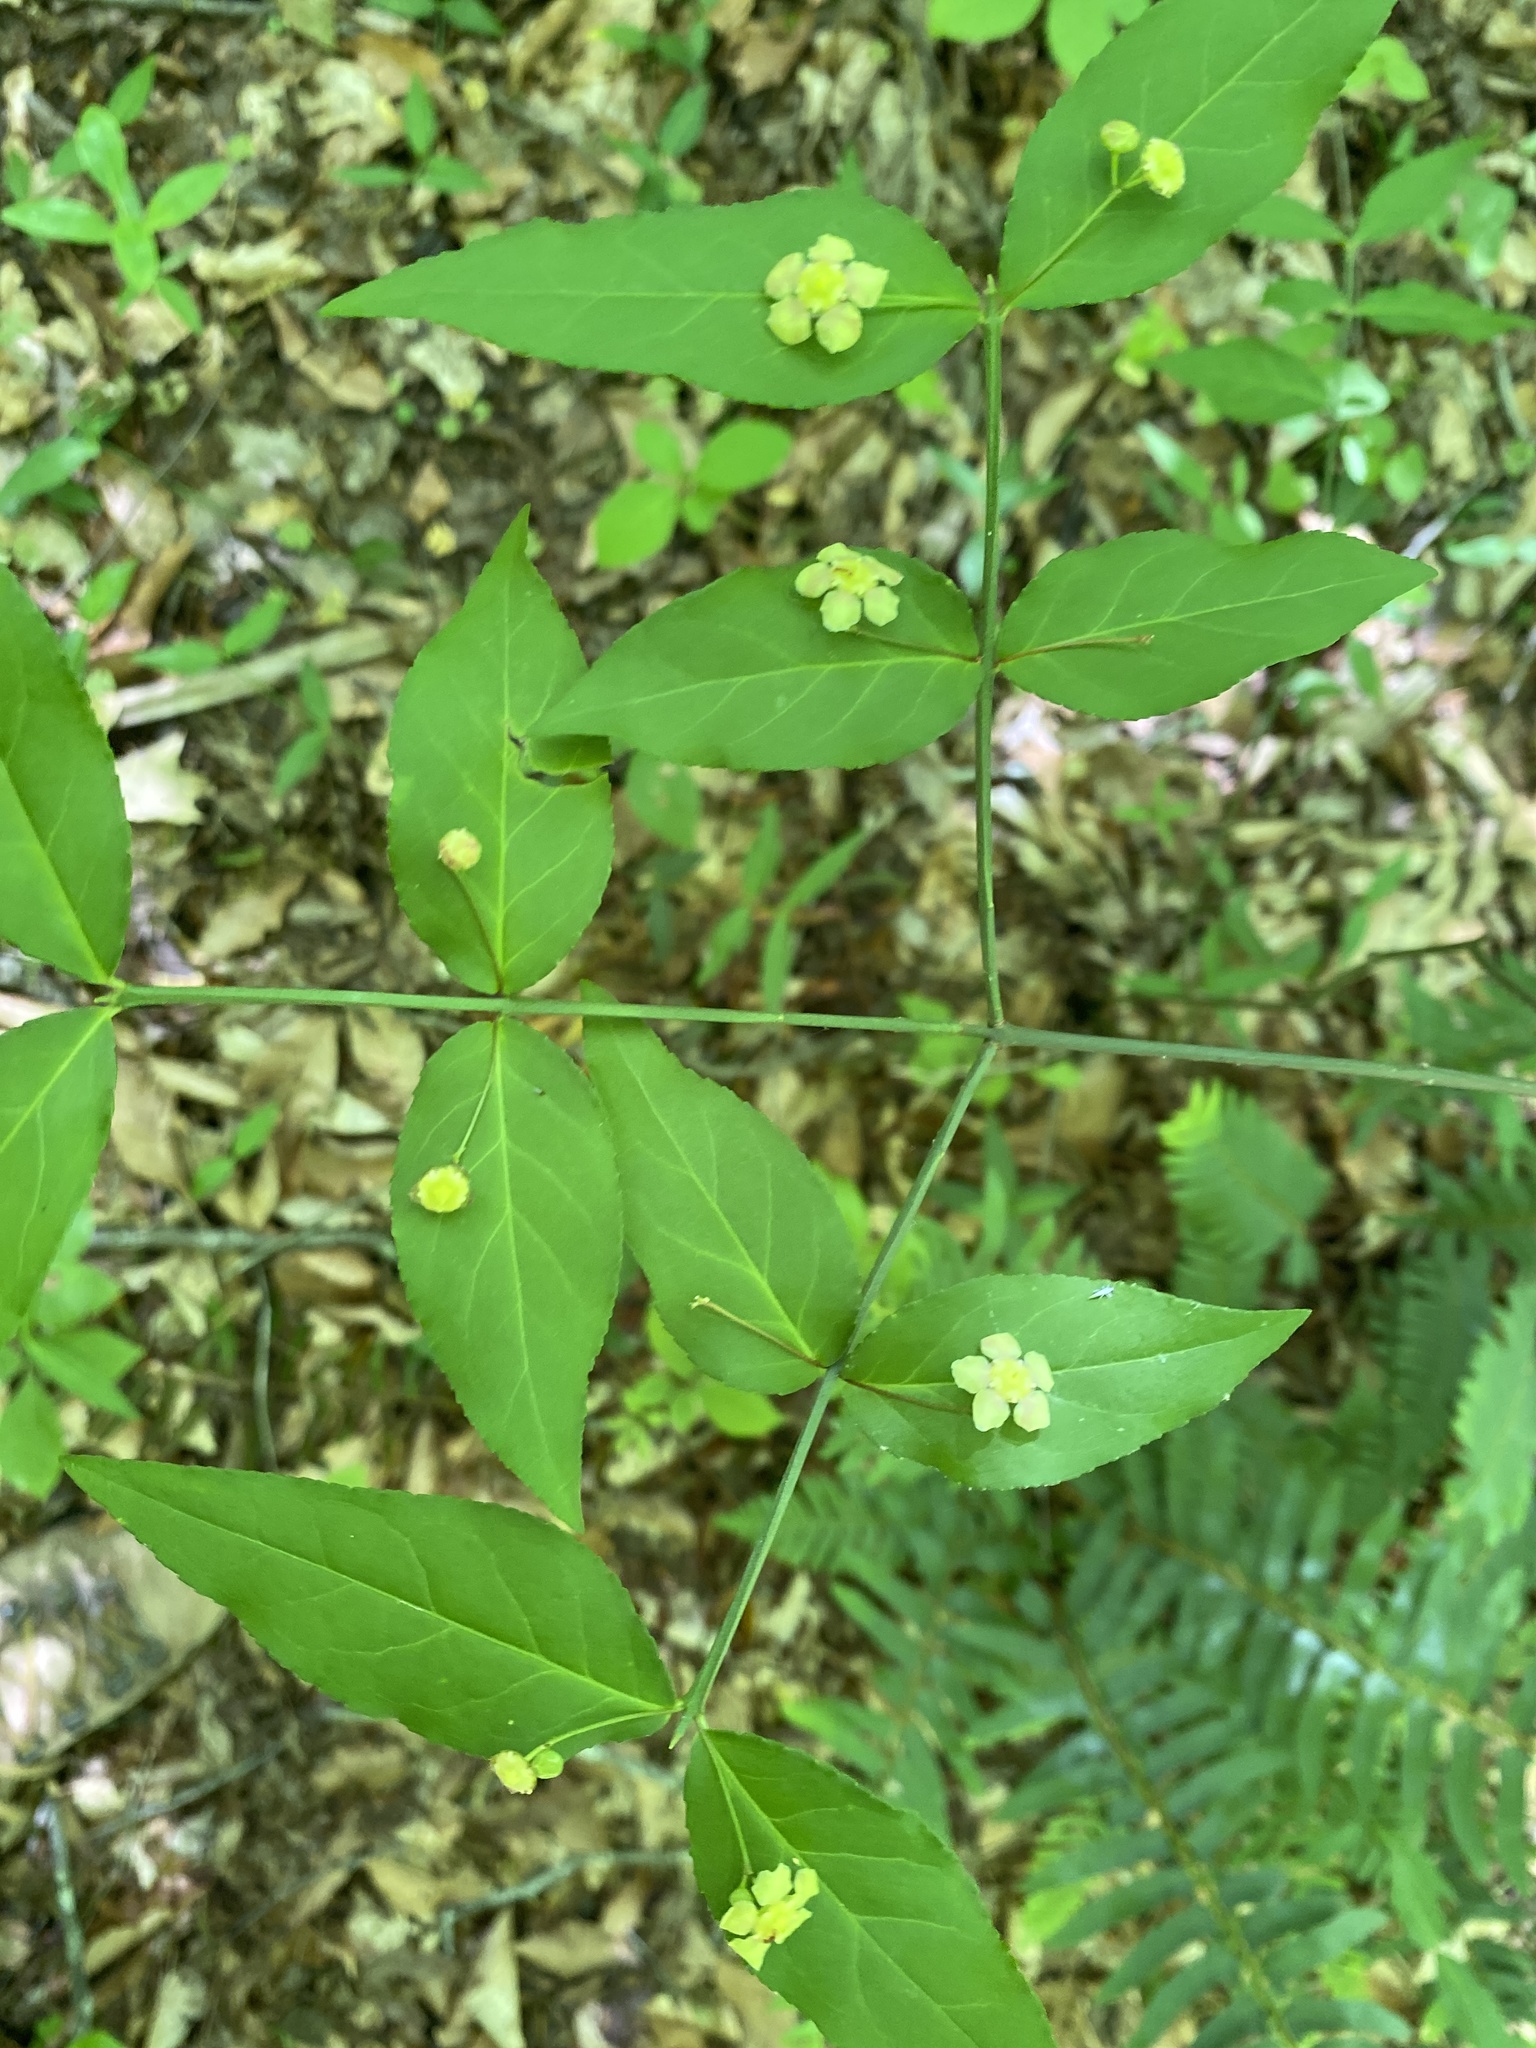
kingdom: Plantae
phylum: Tracheophyta
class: Magnoliopsida
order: Celastrales
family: Celastraceae
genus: Euonymus
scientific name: Euonymus americanus
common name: Bursting-heart
